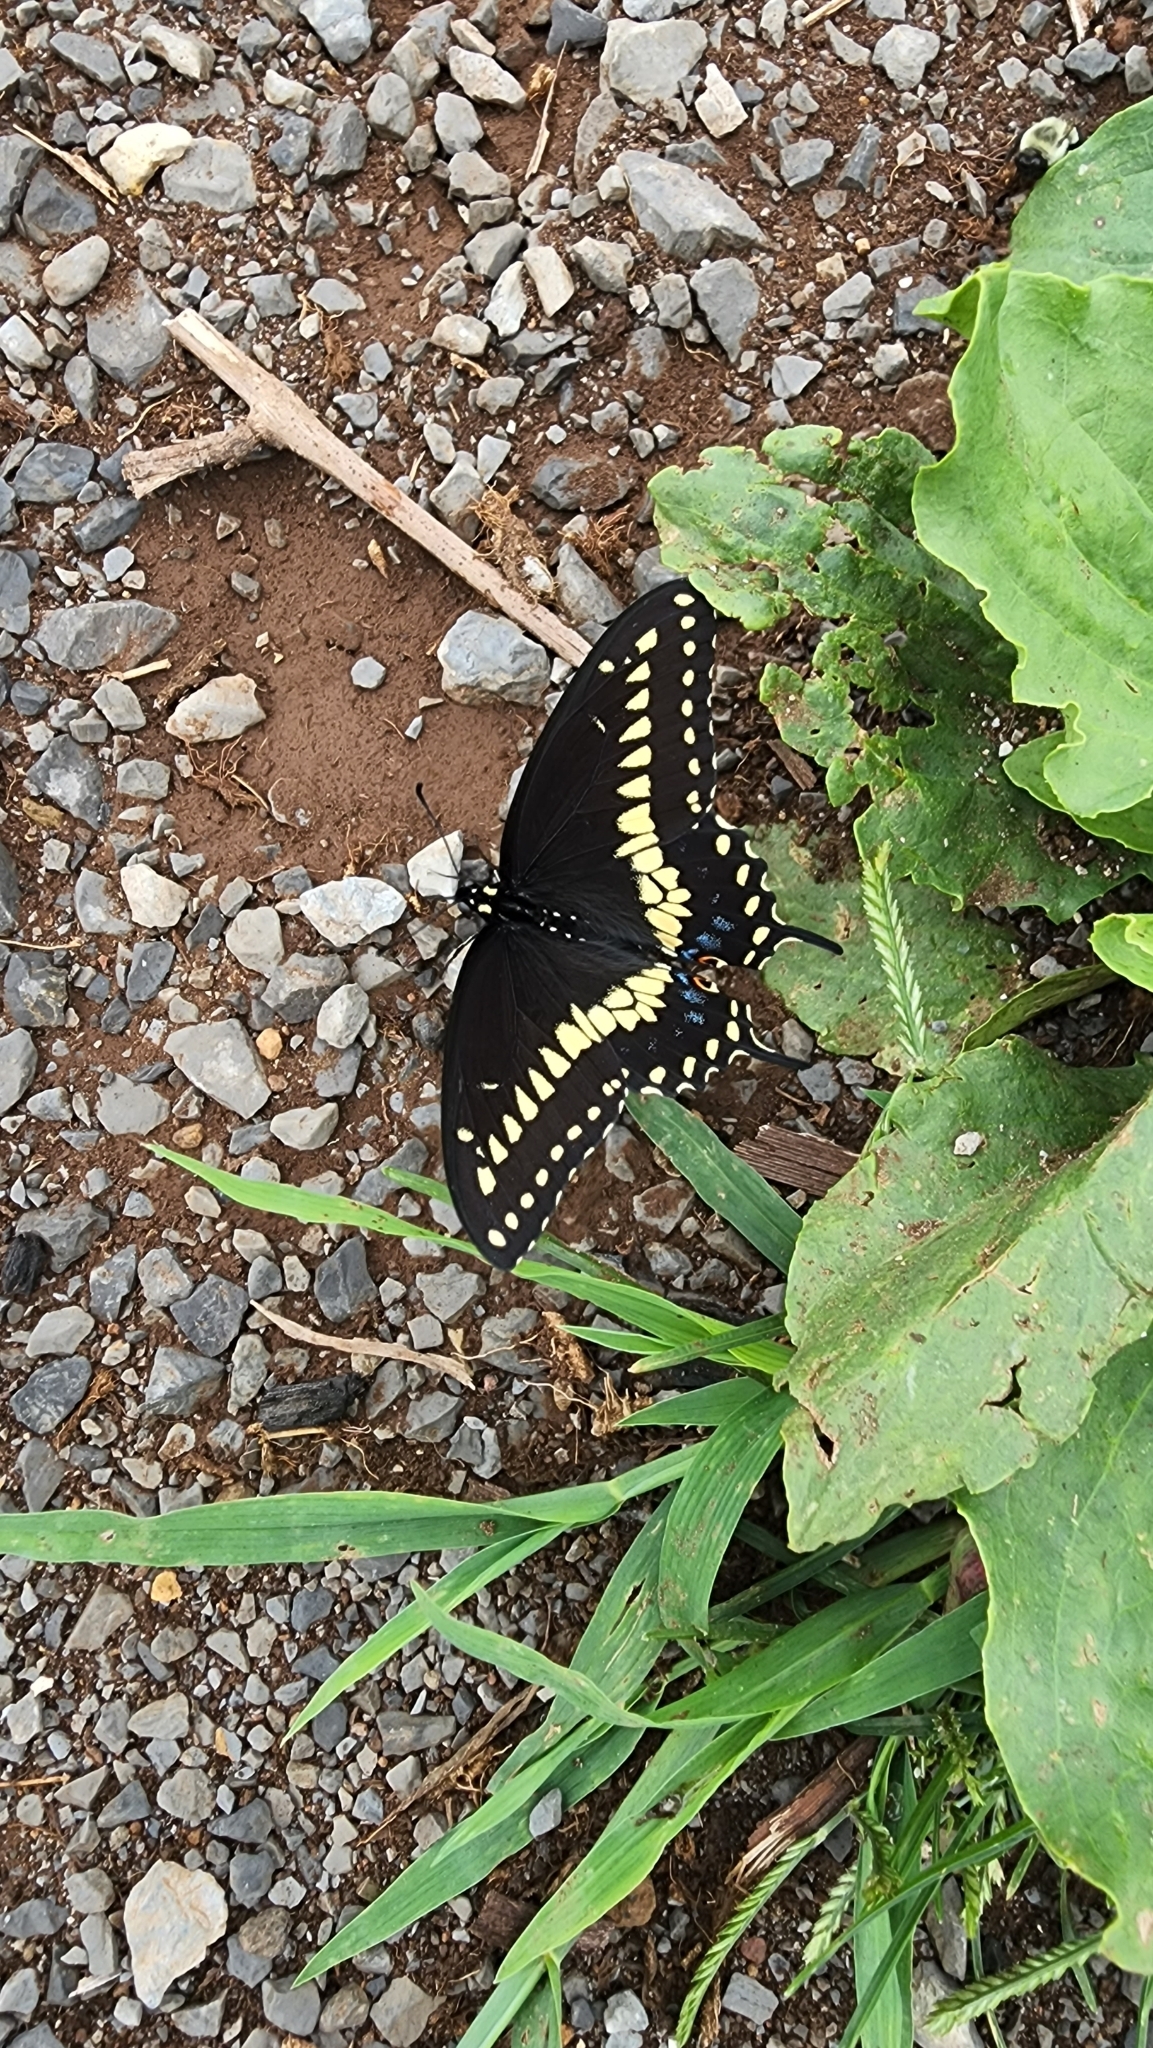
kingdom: Animalia
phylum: Arthropoda
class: Insecta
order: Lepidoptera
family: Papilionidae
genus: Papilio
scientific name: Papilio polyxenes
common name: Black swallowtail
